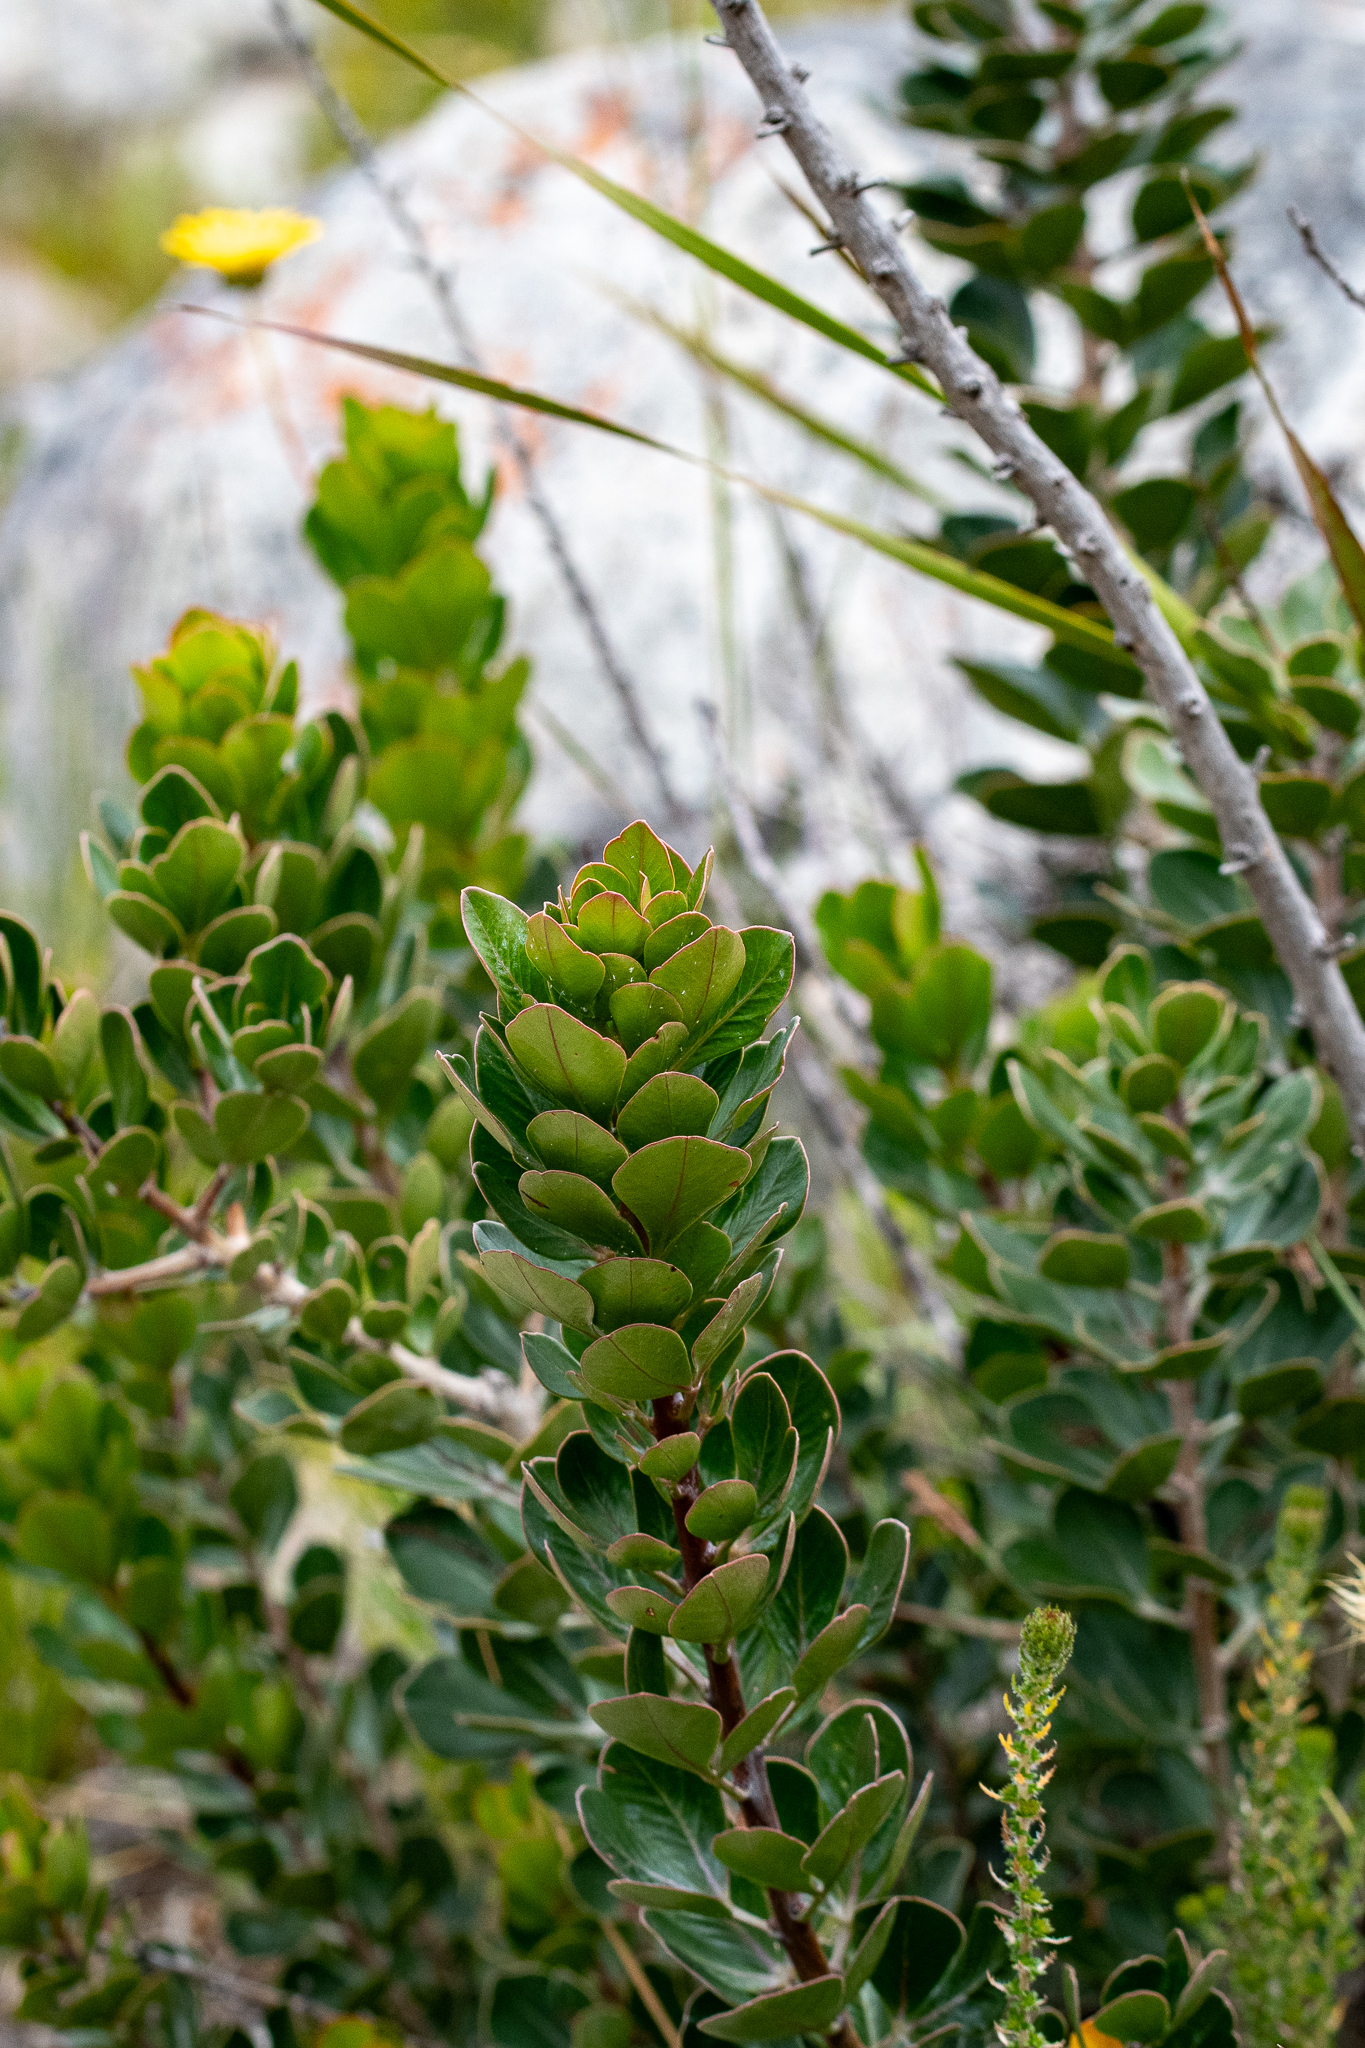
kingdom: Plantae
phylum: Tracheophyta
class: Magnoliopsida
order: Sapindales
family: Anacardiaceae
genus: Searsia
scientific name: Searsia scytophylla
